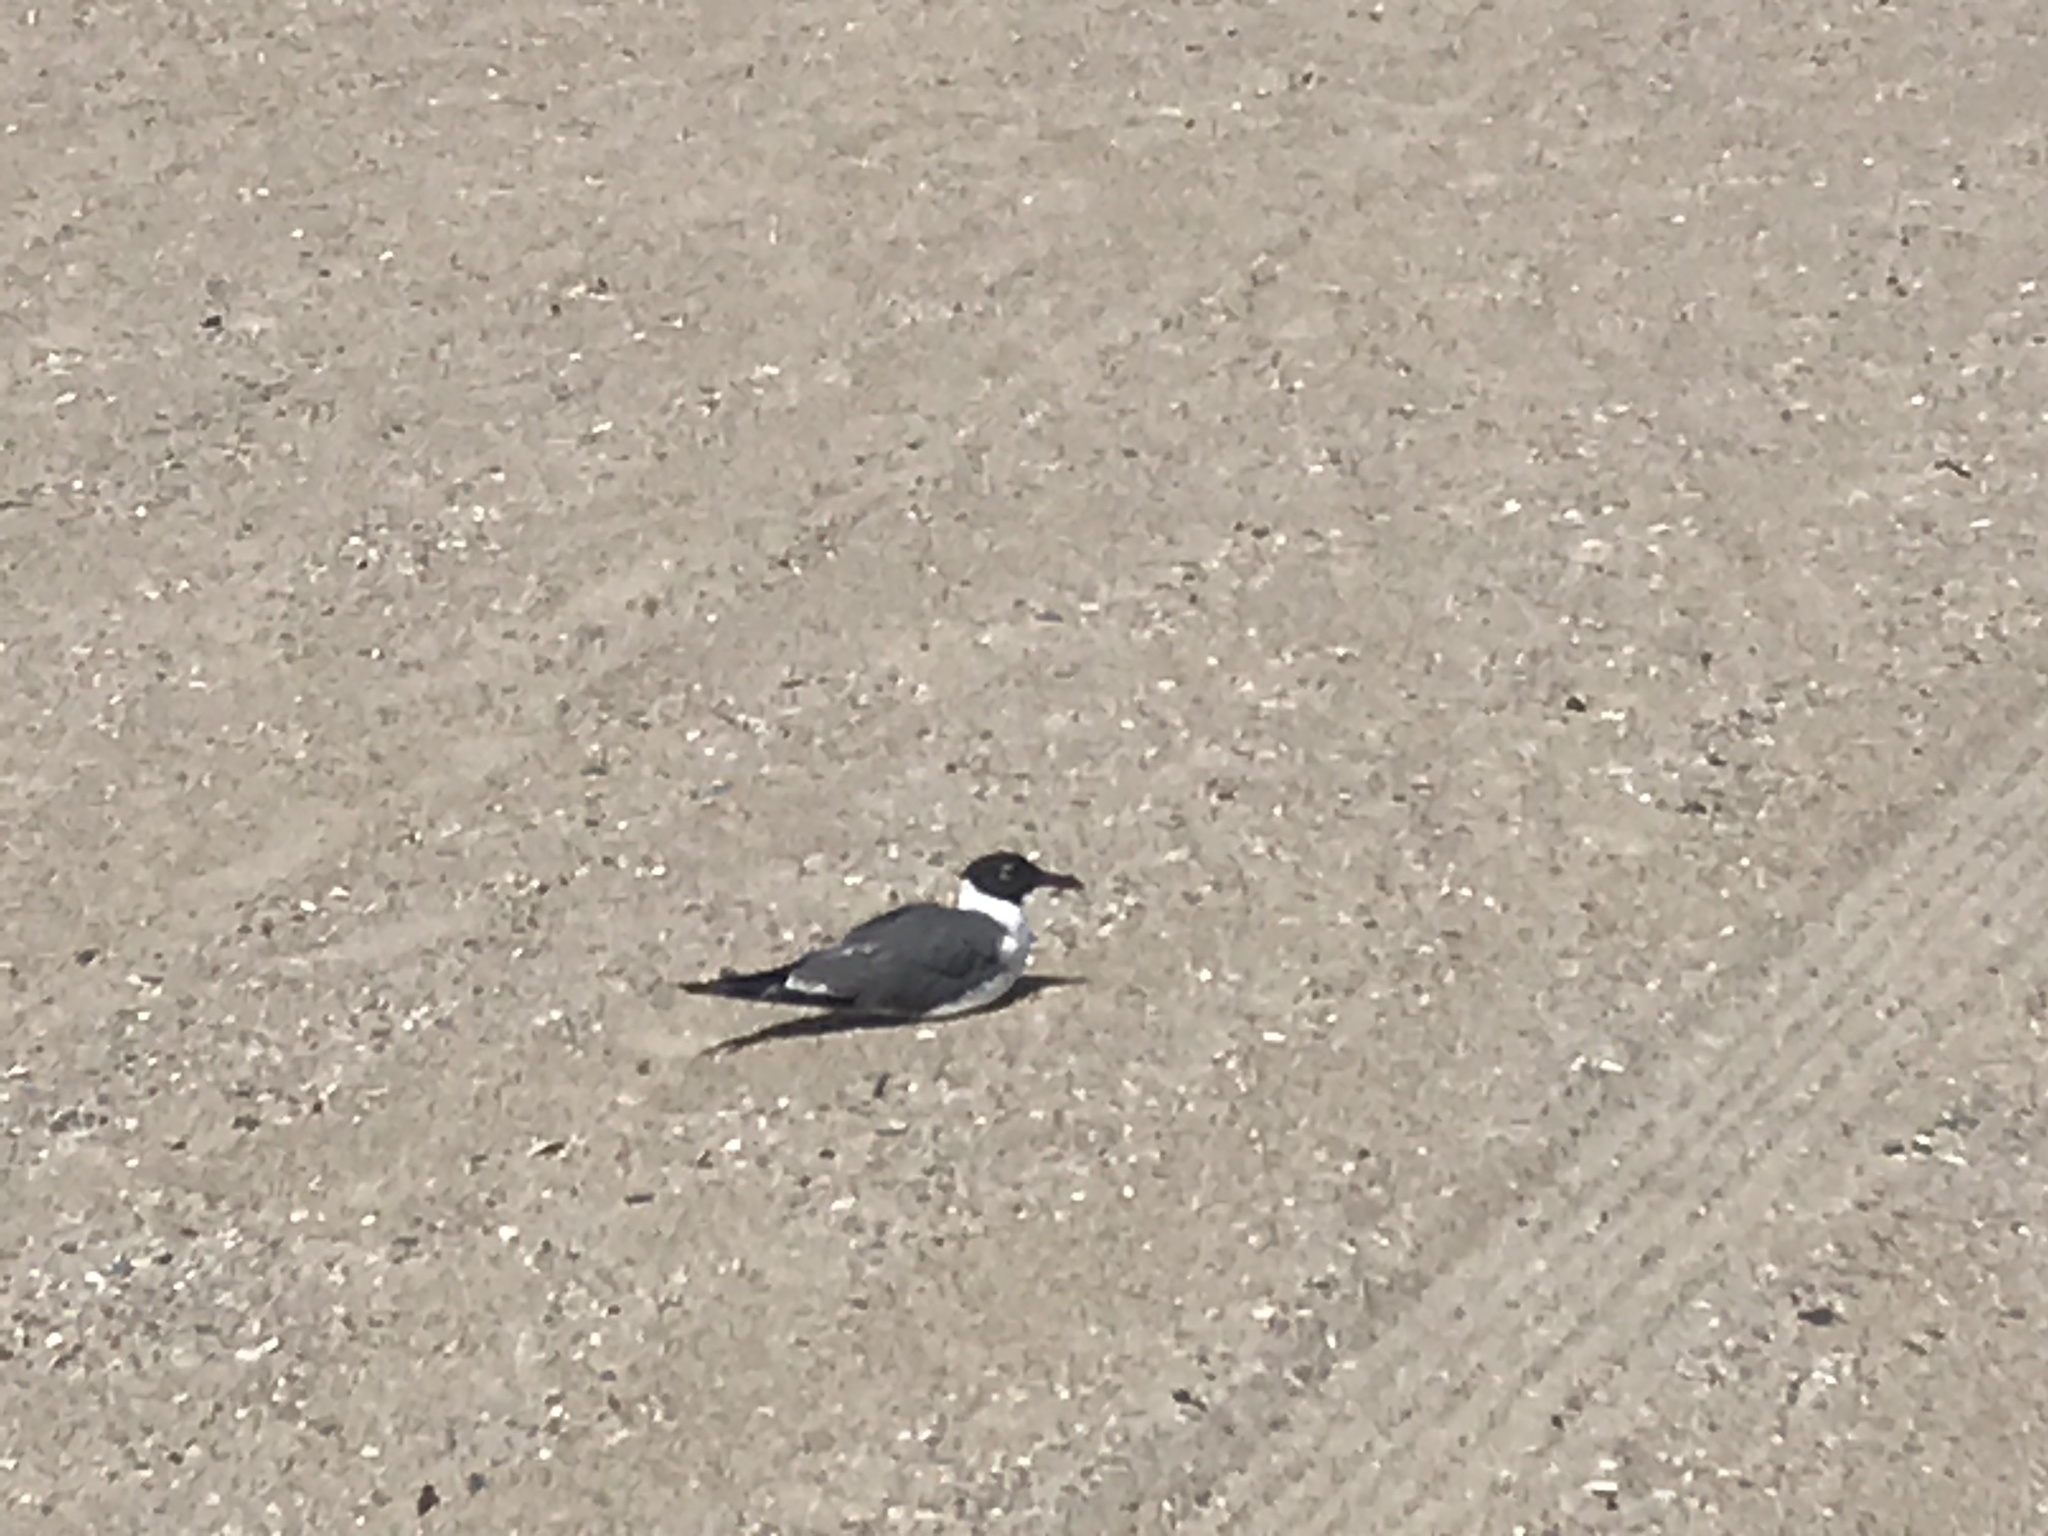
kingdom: Animalia
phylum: Chordata
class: Aves
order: Charadriiformes
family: Laridae
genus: Leucophaeus
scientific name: Leucophaeus atricilla
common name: Laughing gull
